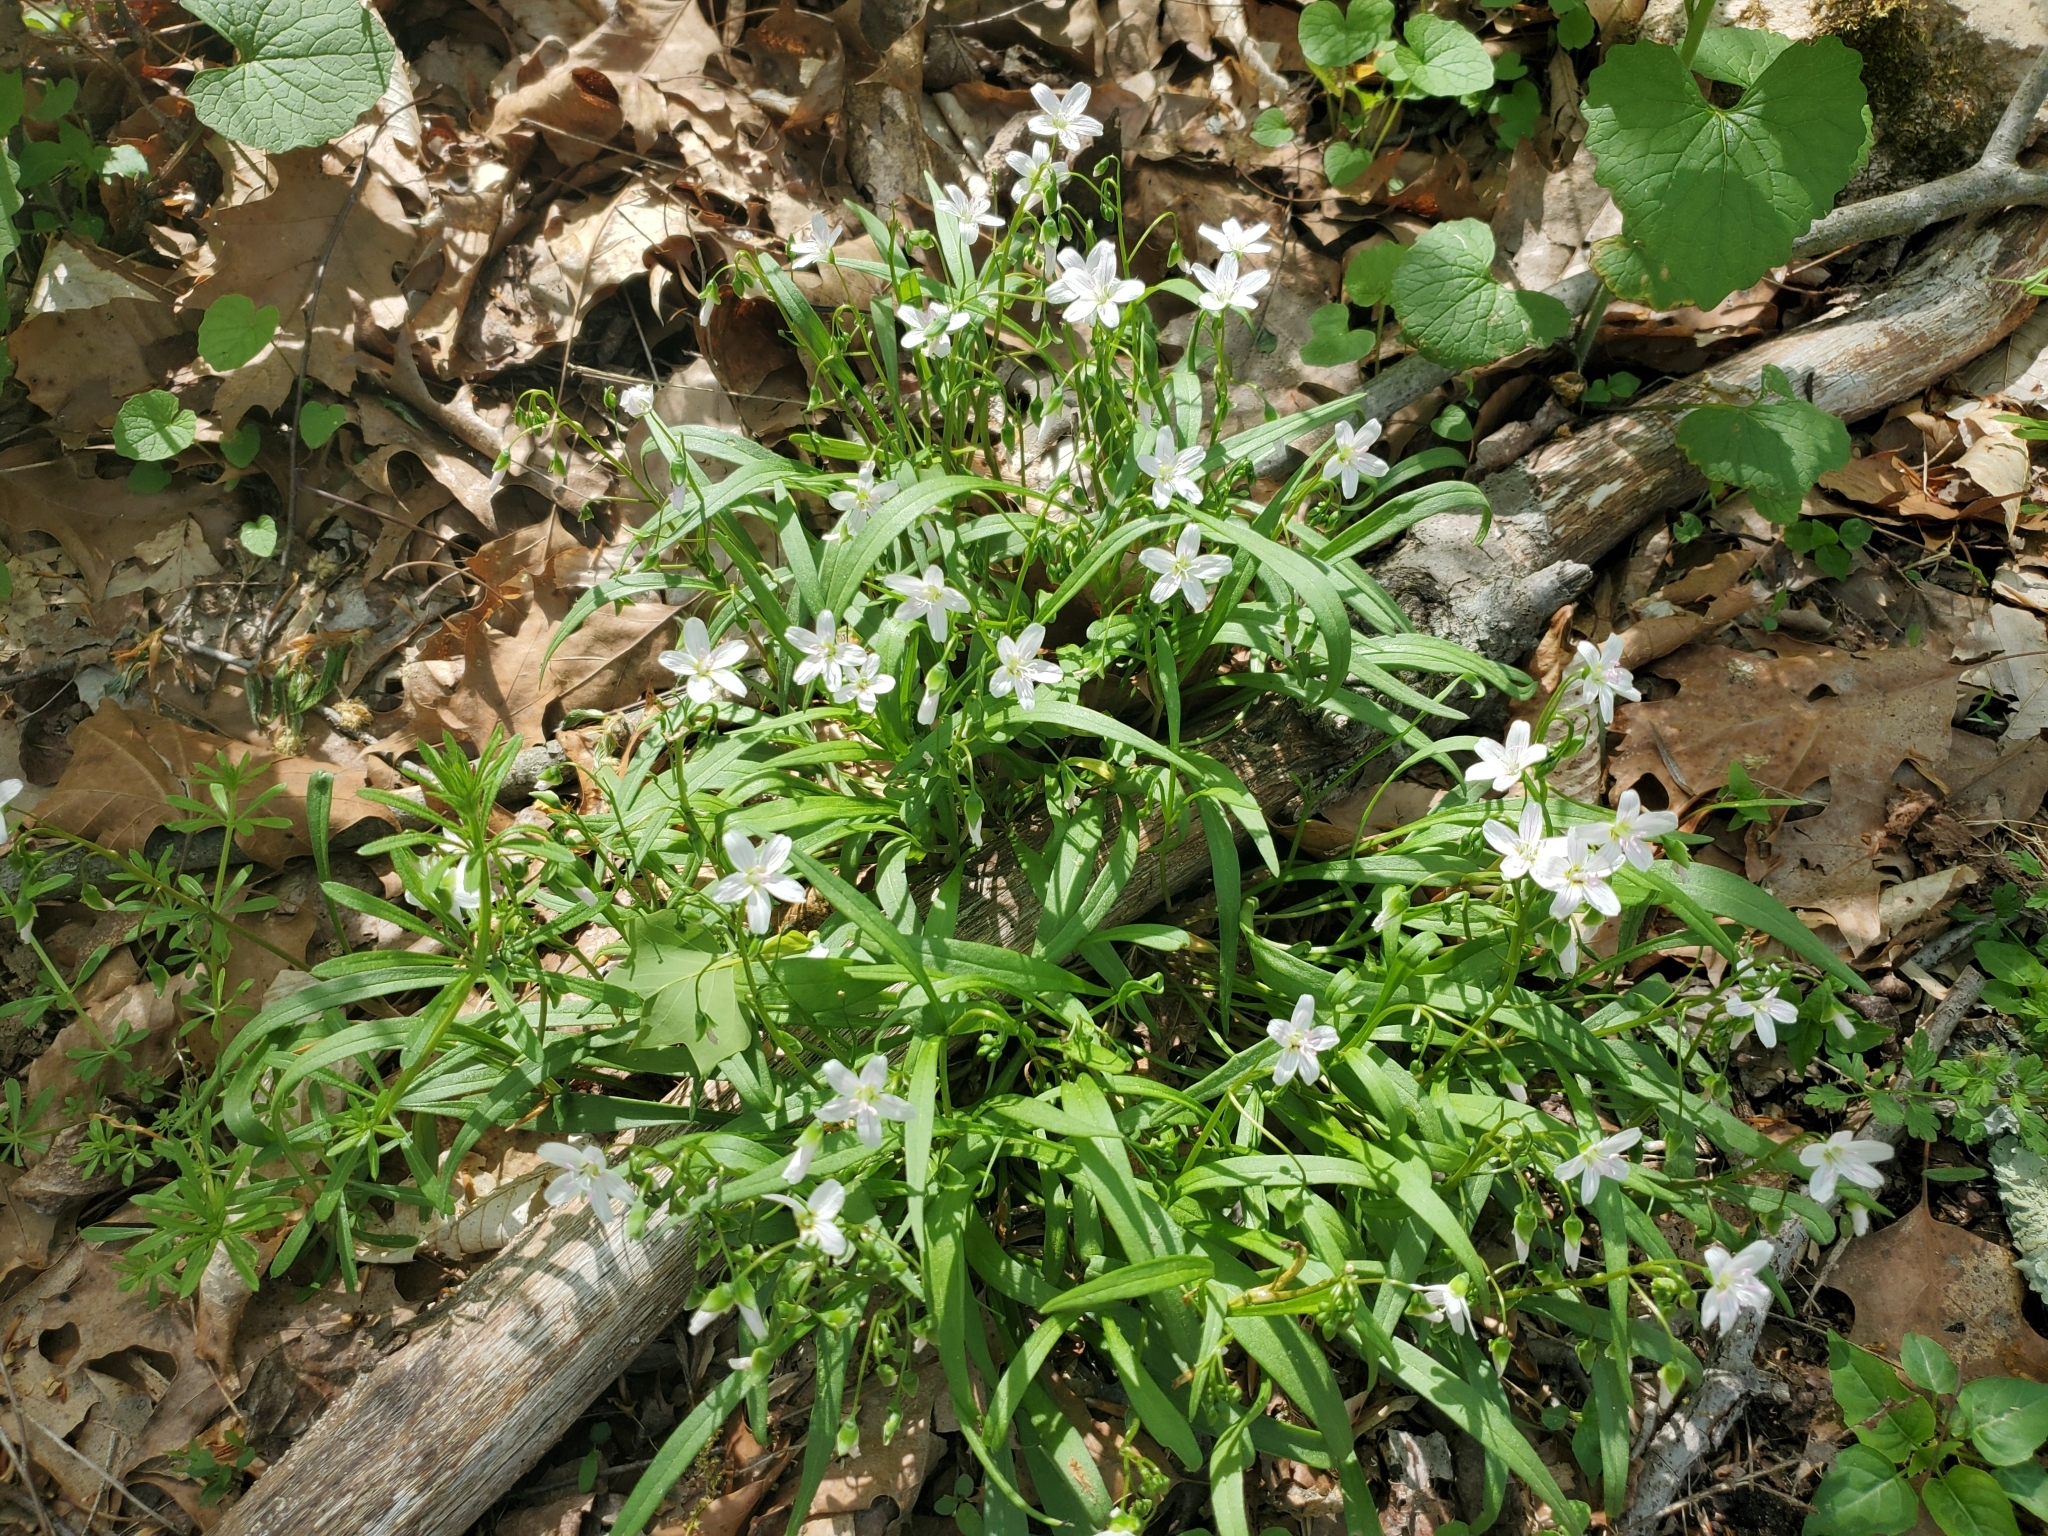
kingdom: Plantae
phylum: Tracheophyta
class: Magnoliopsida
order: Caryophyllales
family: Montiaceae
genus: Claytonia
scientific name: Claytonia virginica
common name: Virginia springbeauty
